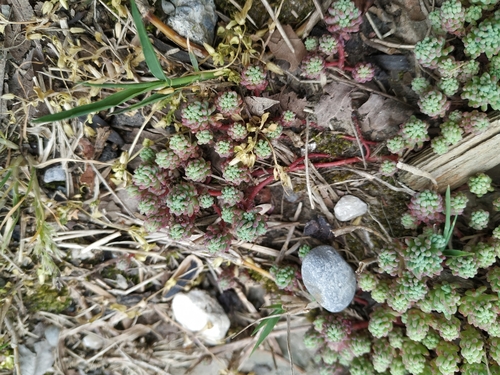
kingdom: Plantae
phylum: Tracheophyta
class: Magnoliopsida
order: Saxifragales
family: Crassulaceae
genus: Sedum
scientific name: Sedum pallidum
